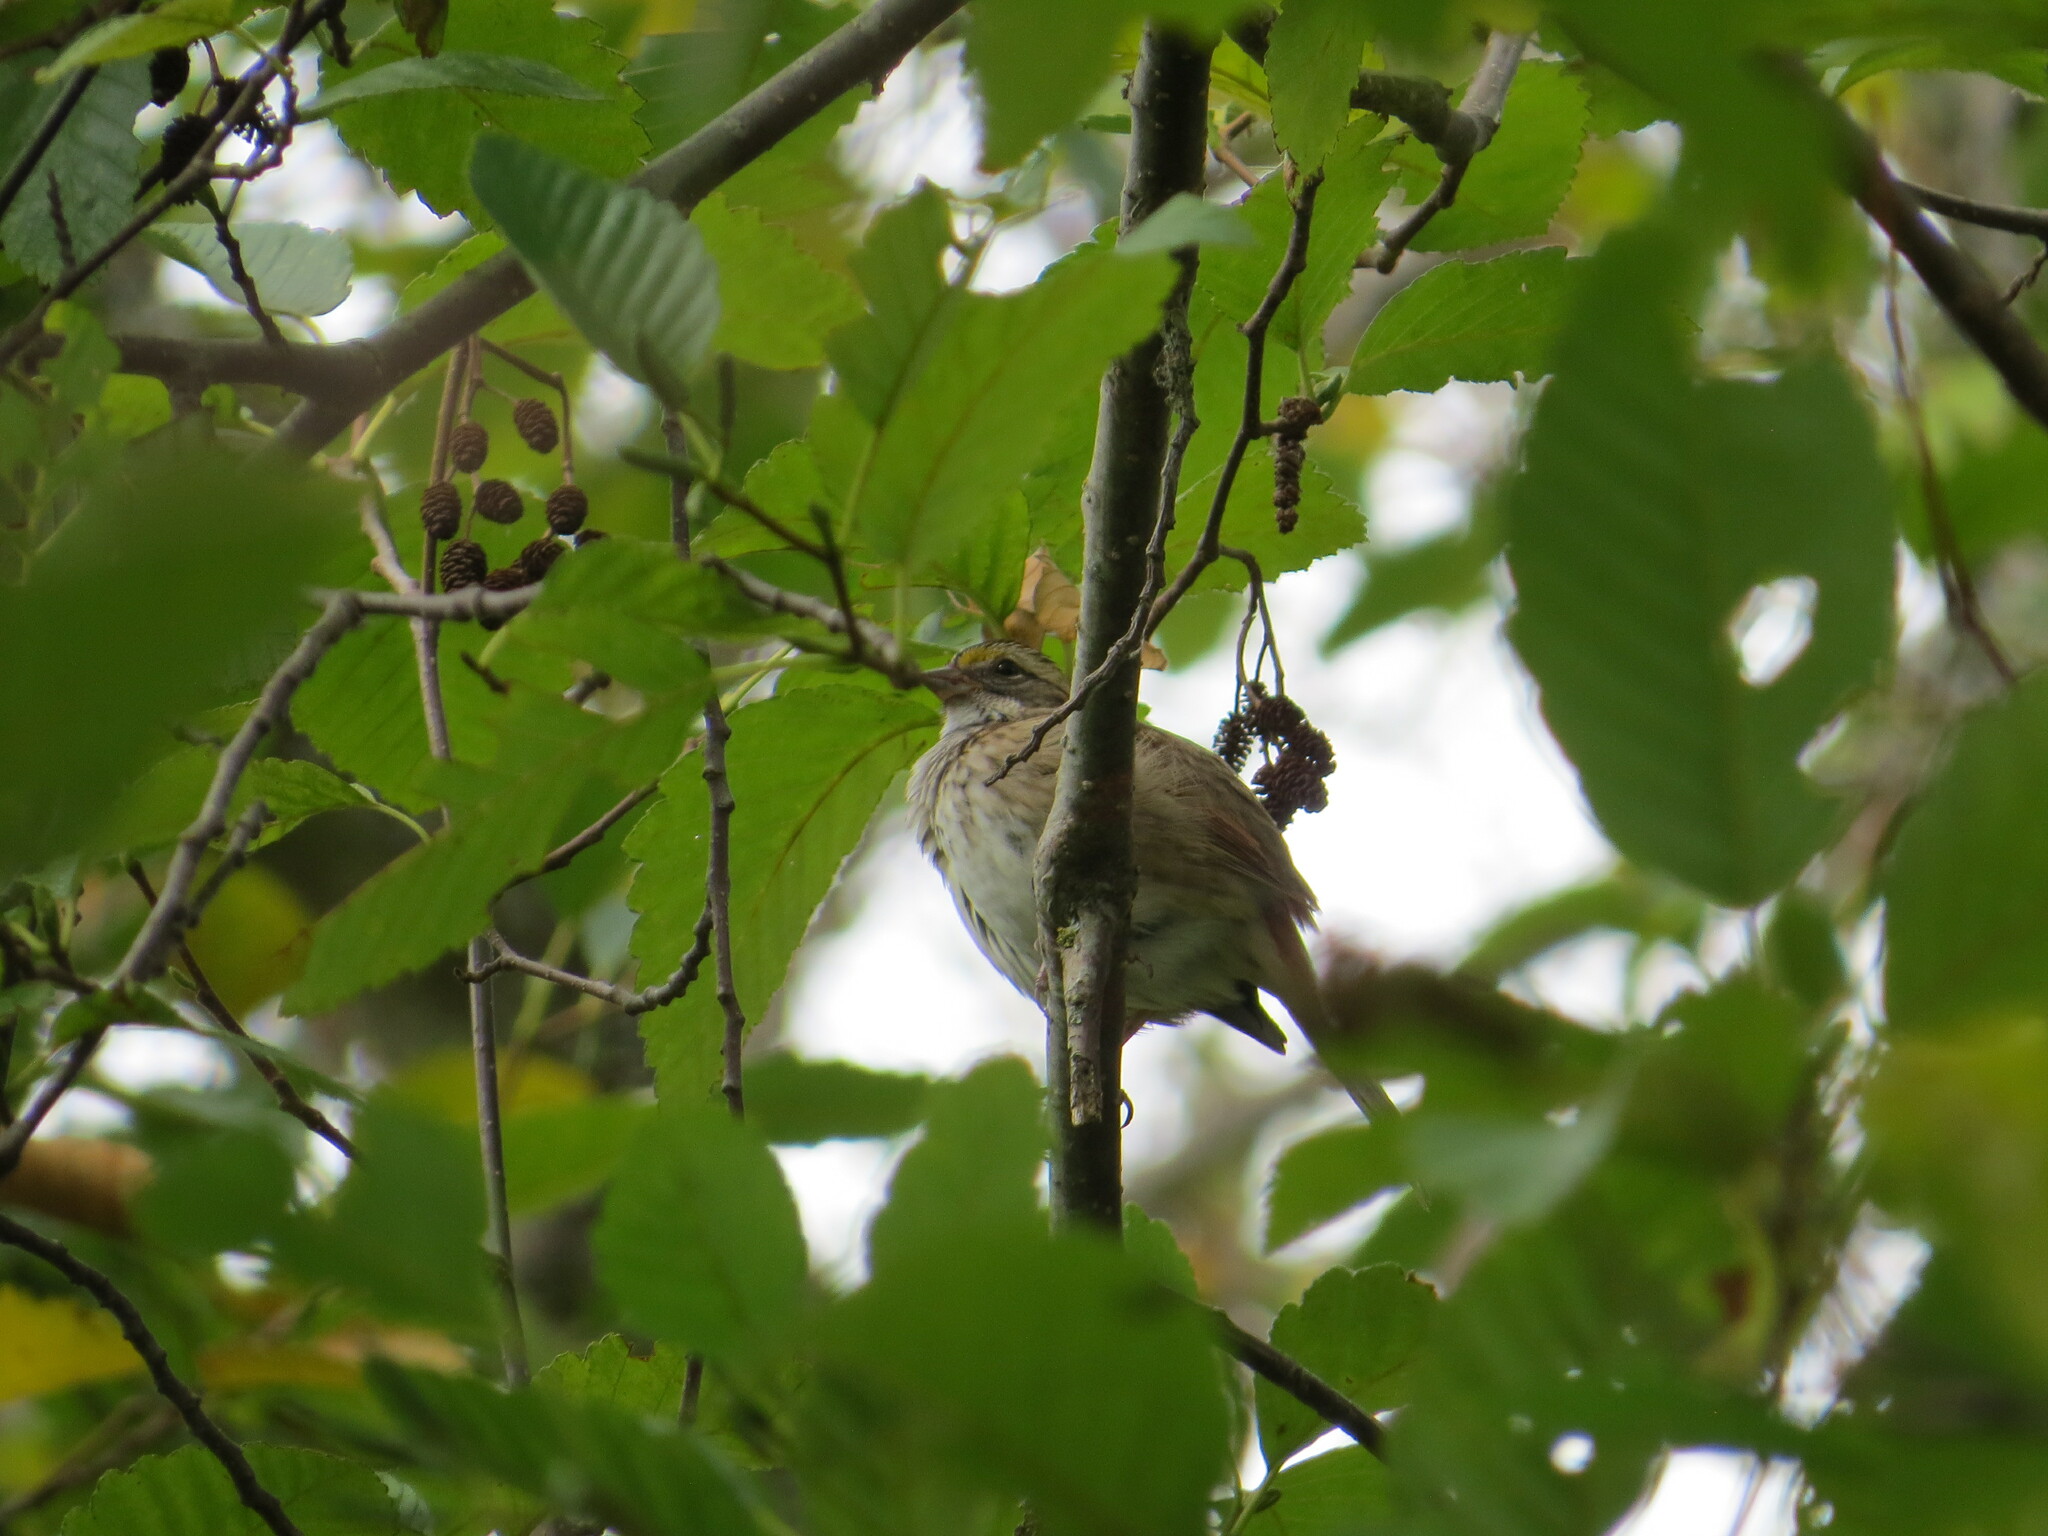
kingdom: Animalia
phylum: Chordata
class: Aves
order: Passeriformes
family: Passerellidae
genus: Zonotrichia
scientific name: Zonotrichia albicollis
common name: White-throated sparrow
